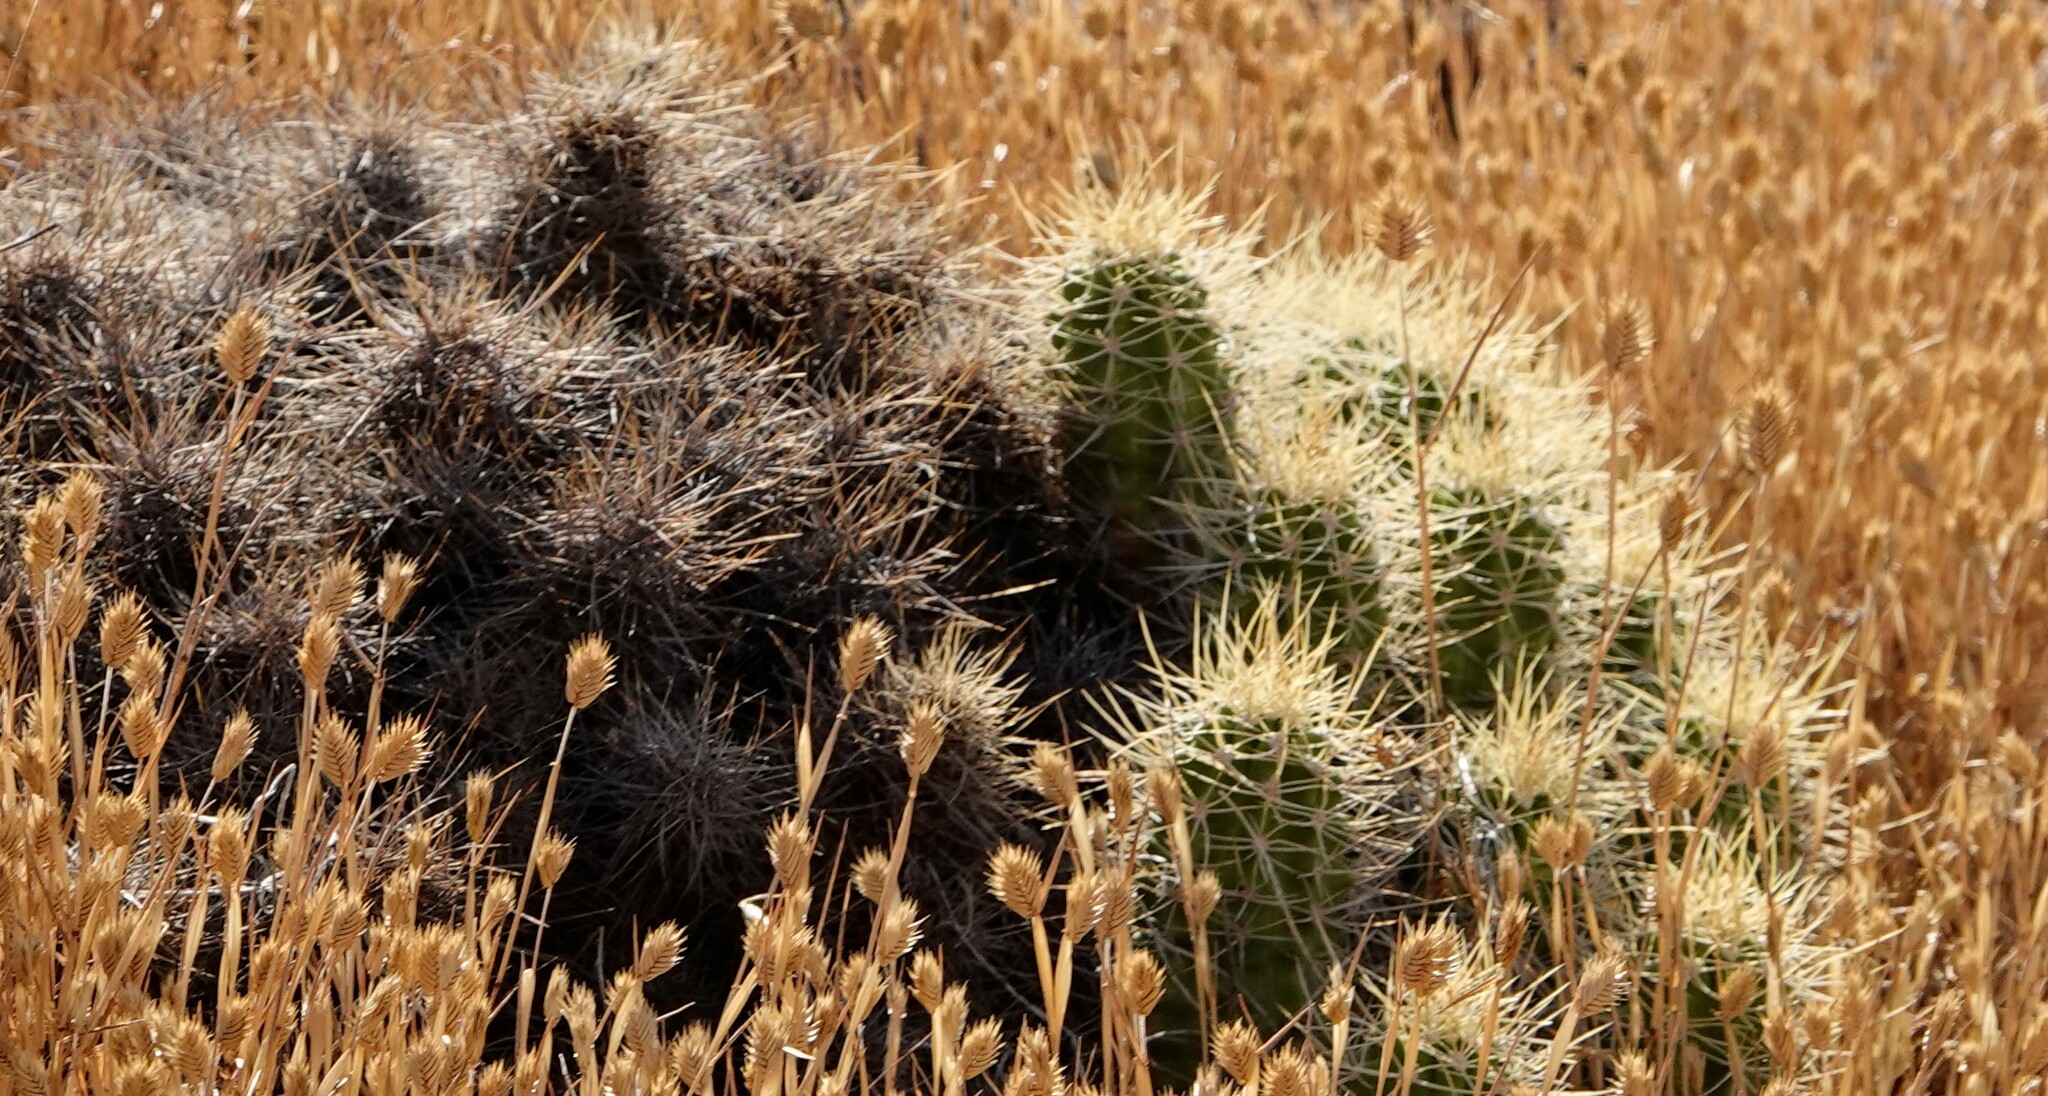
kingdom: Plantae
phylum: Tracheophyta
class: Magnoliopsida
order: Caryophyllales
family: Cactaceae
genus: Echinocereus
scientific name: Echinocereus triglochidiatus
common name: Claretcup hedgehog
